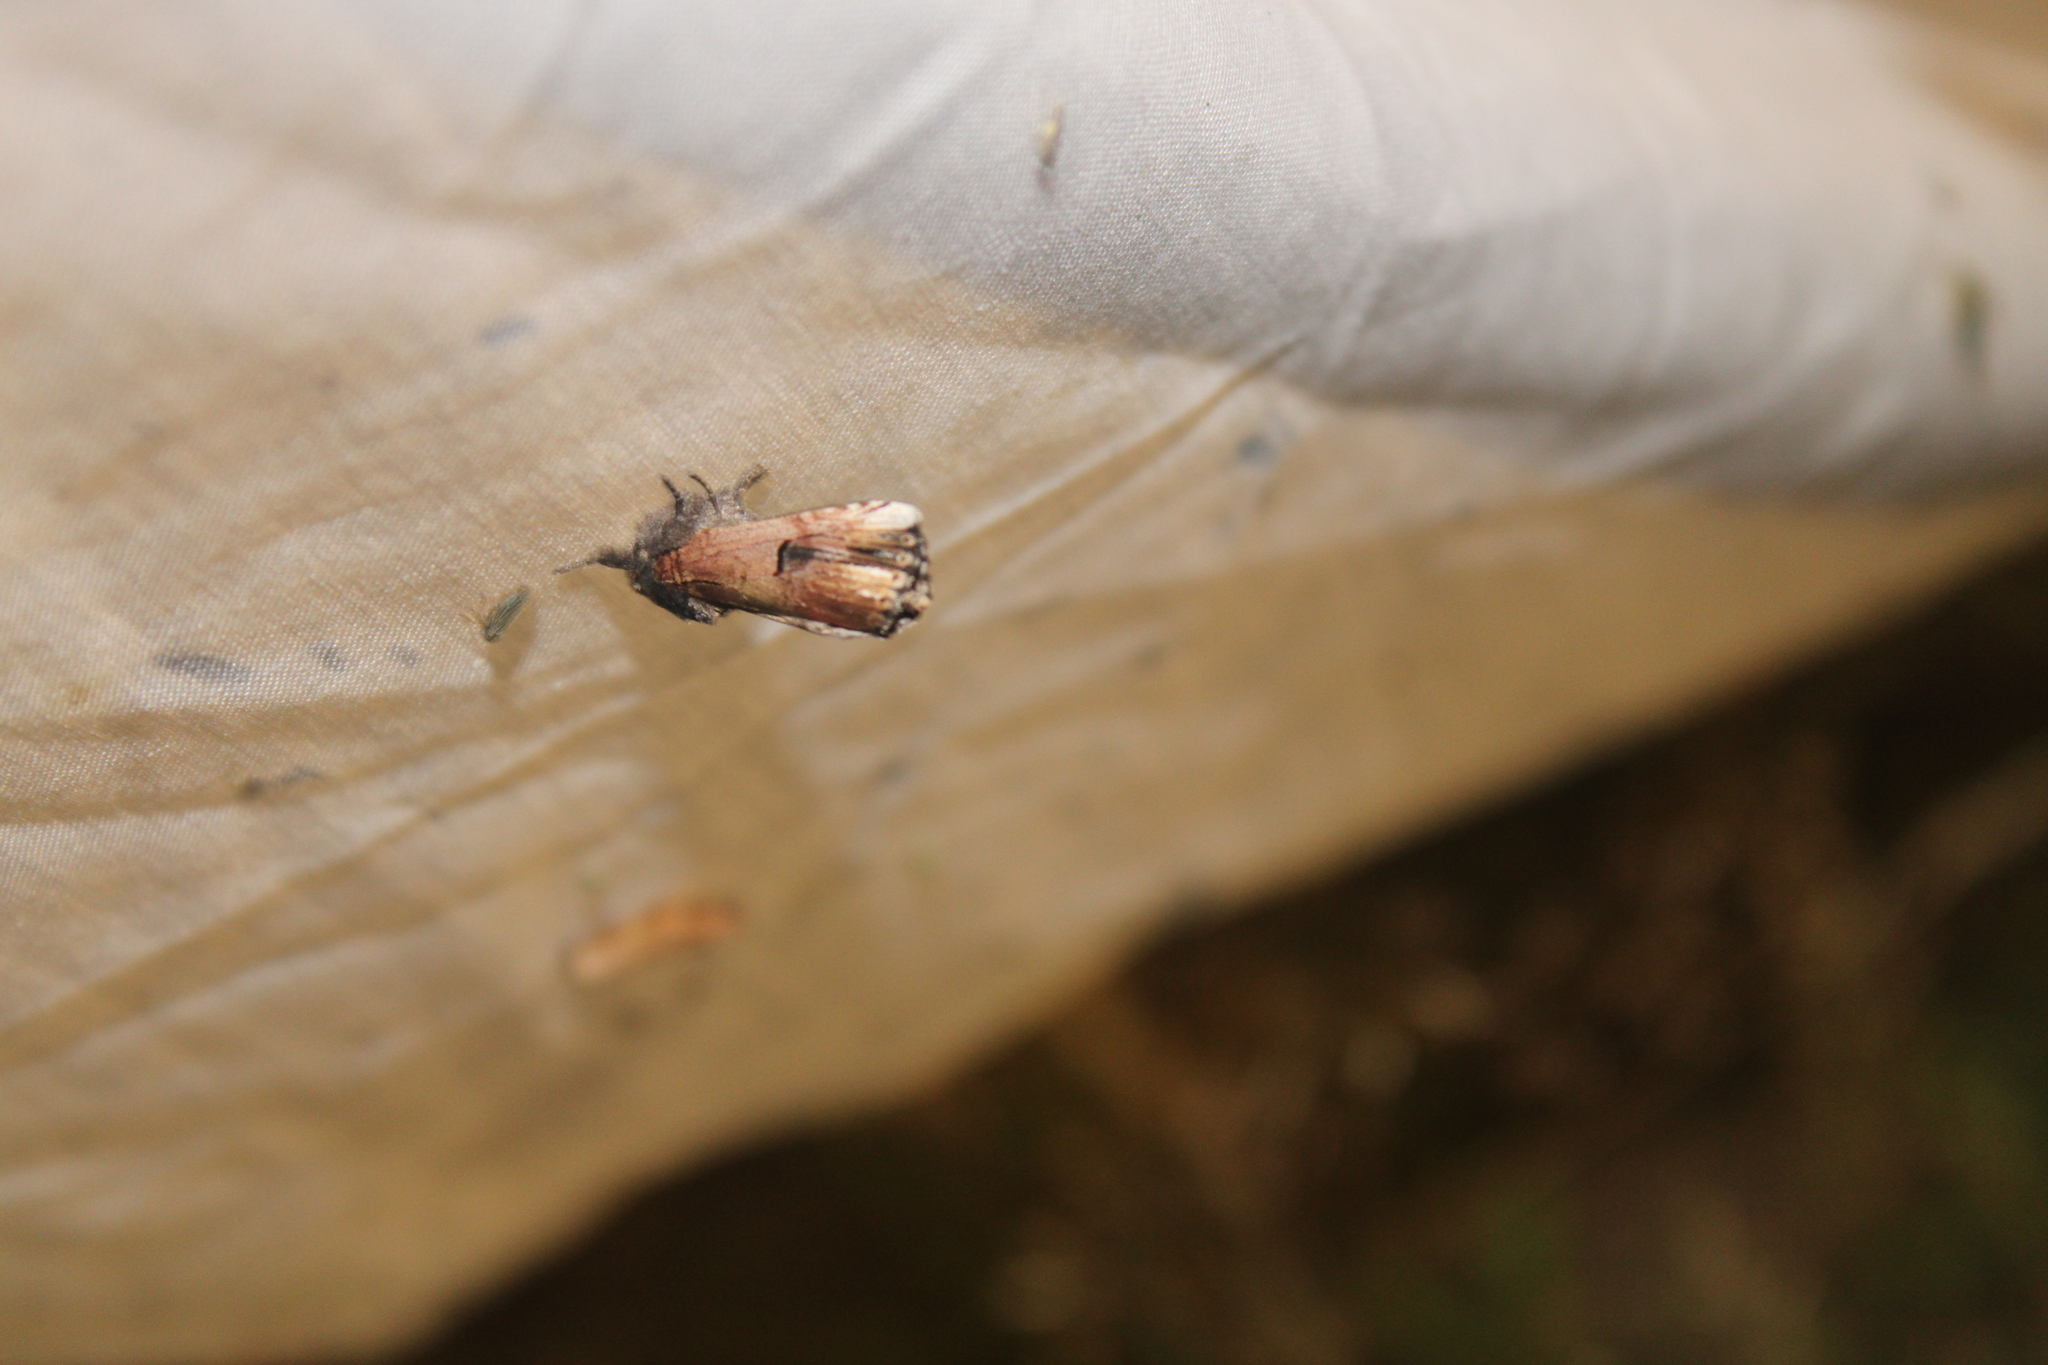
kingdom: Animalia
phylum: Arthropoda
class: Insecta
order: Lepidoptera
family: Notodontidae
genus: Schizura
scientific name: Schizura badia
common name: Chestnut schizura
